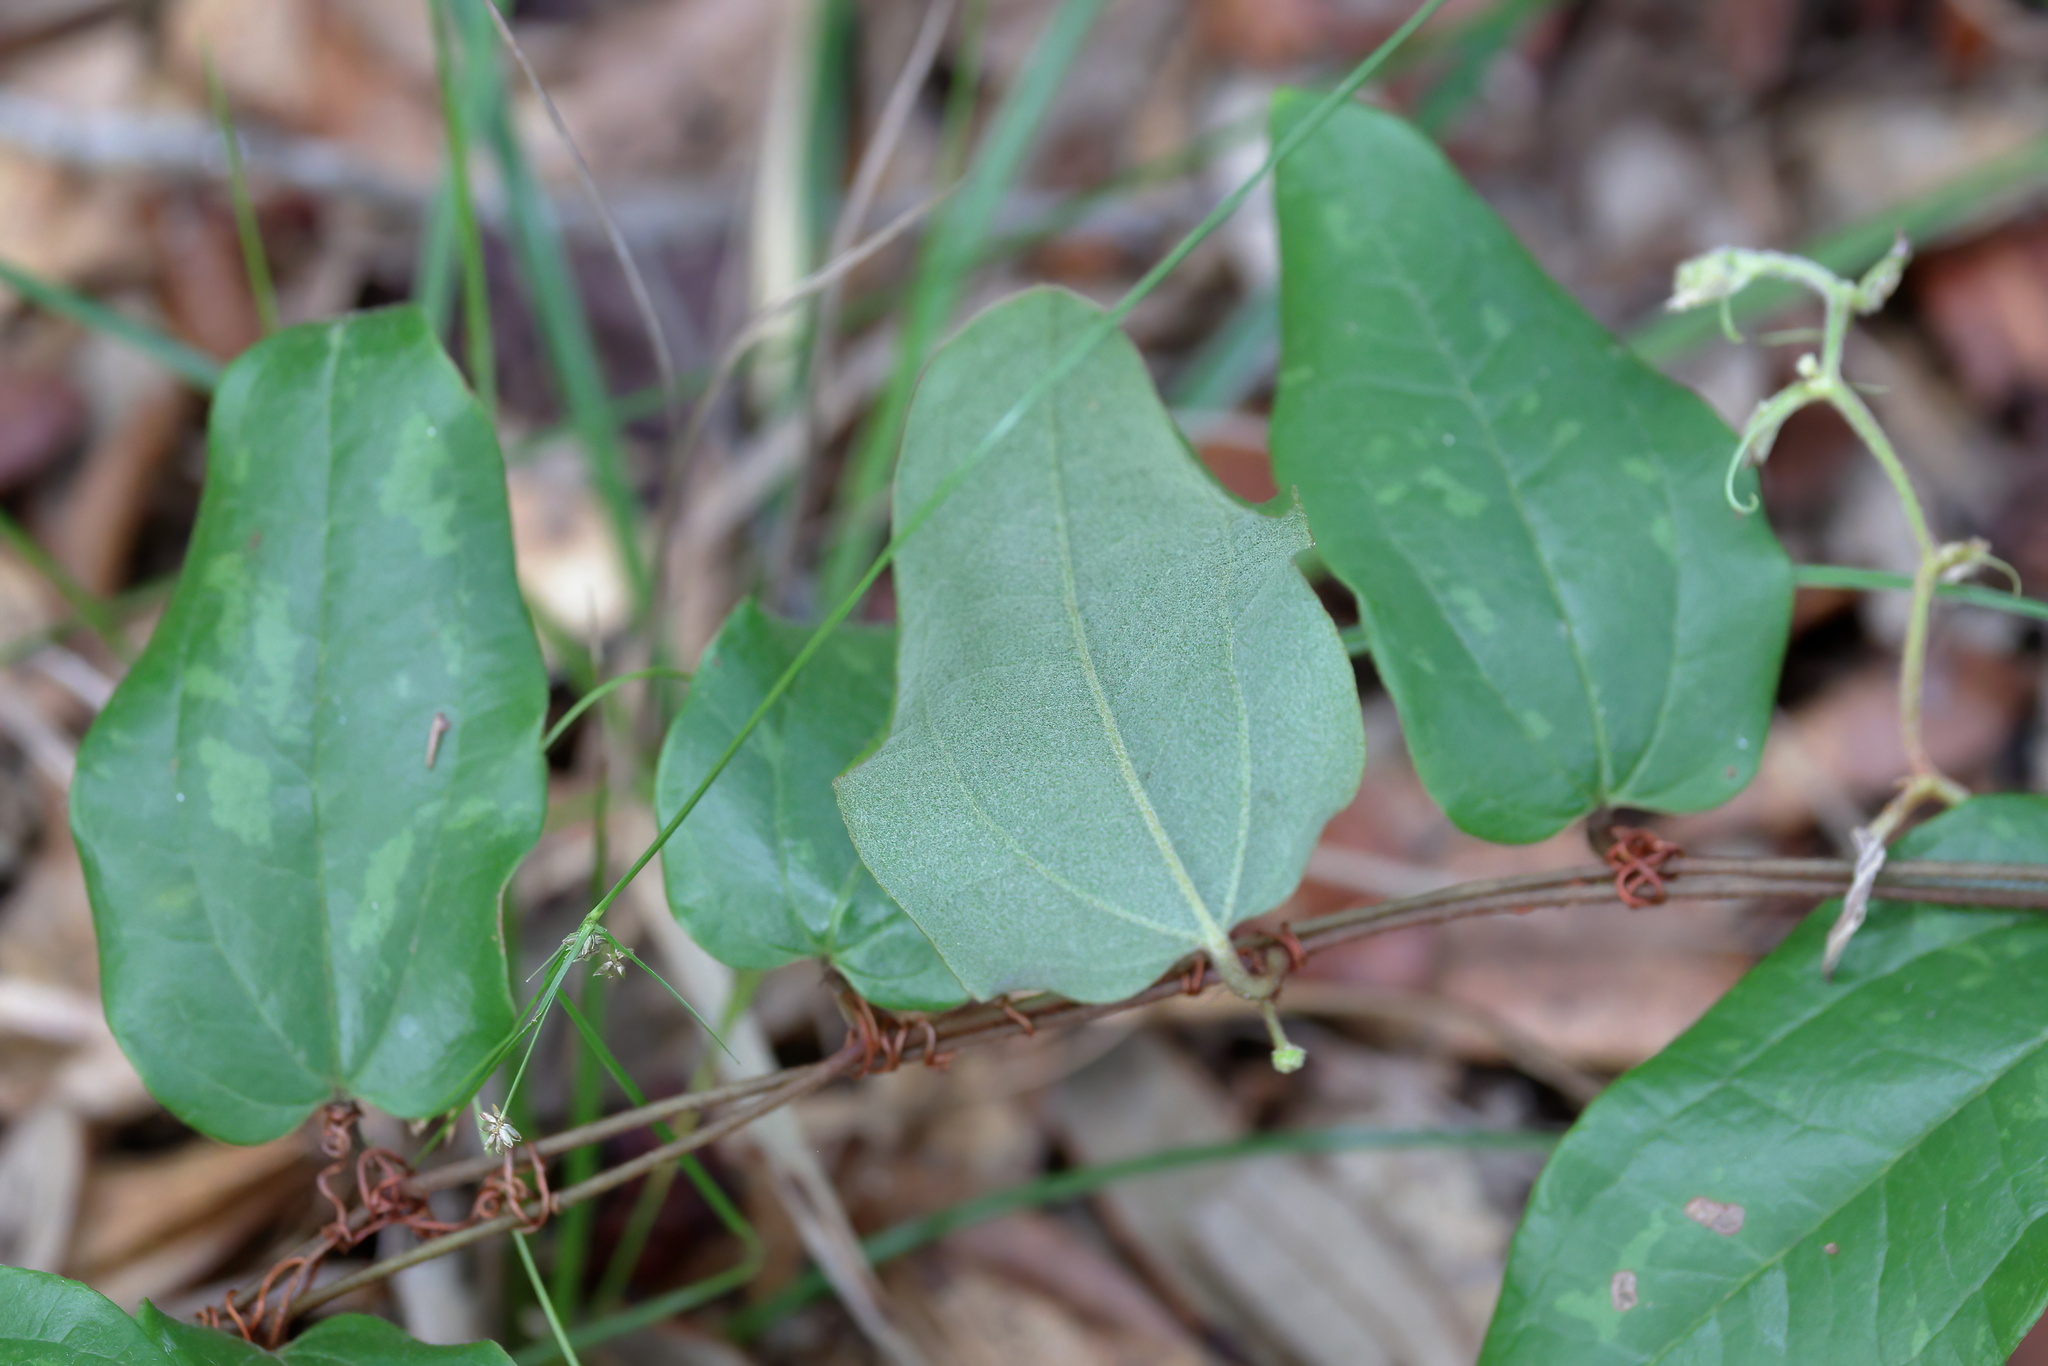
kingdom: Plantae
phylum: Tracheophyta
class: Liliopsida
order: Liliales
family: Smilacaceae
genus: Smilax
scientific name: Smilax pumila
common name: Sarsaparilla-vine
